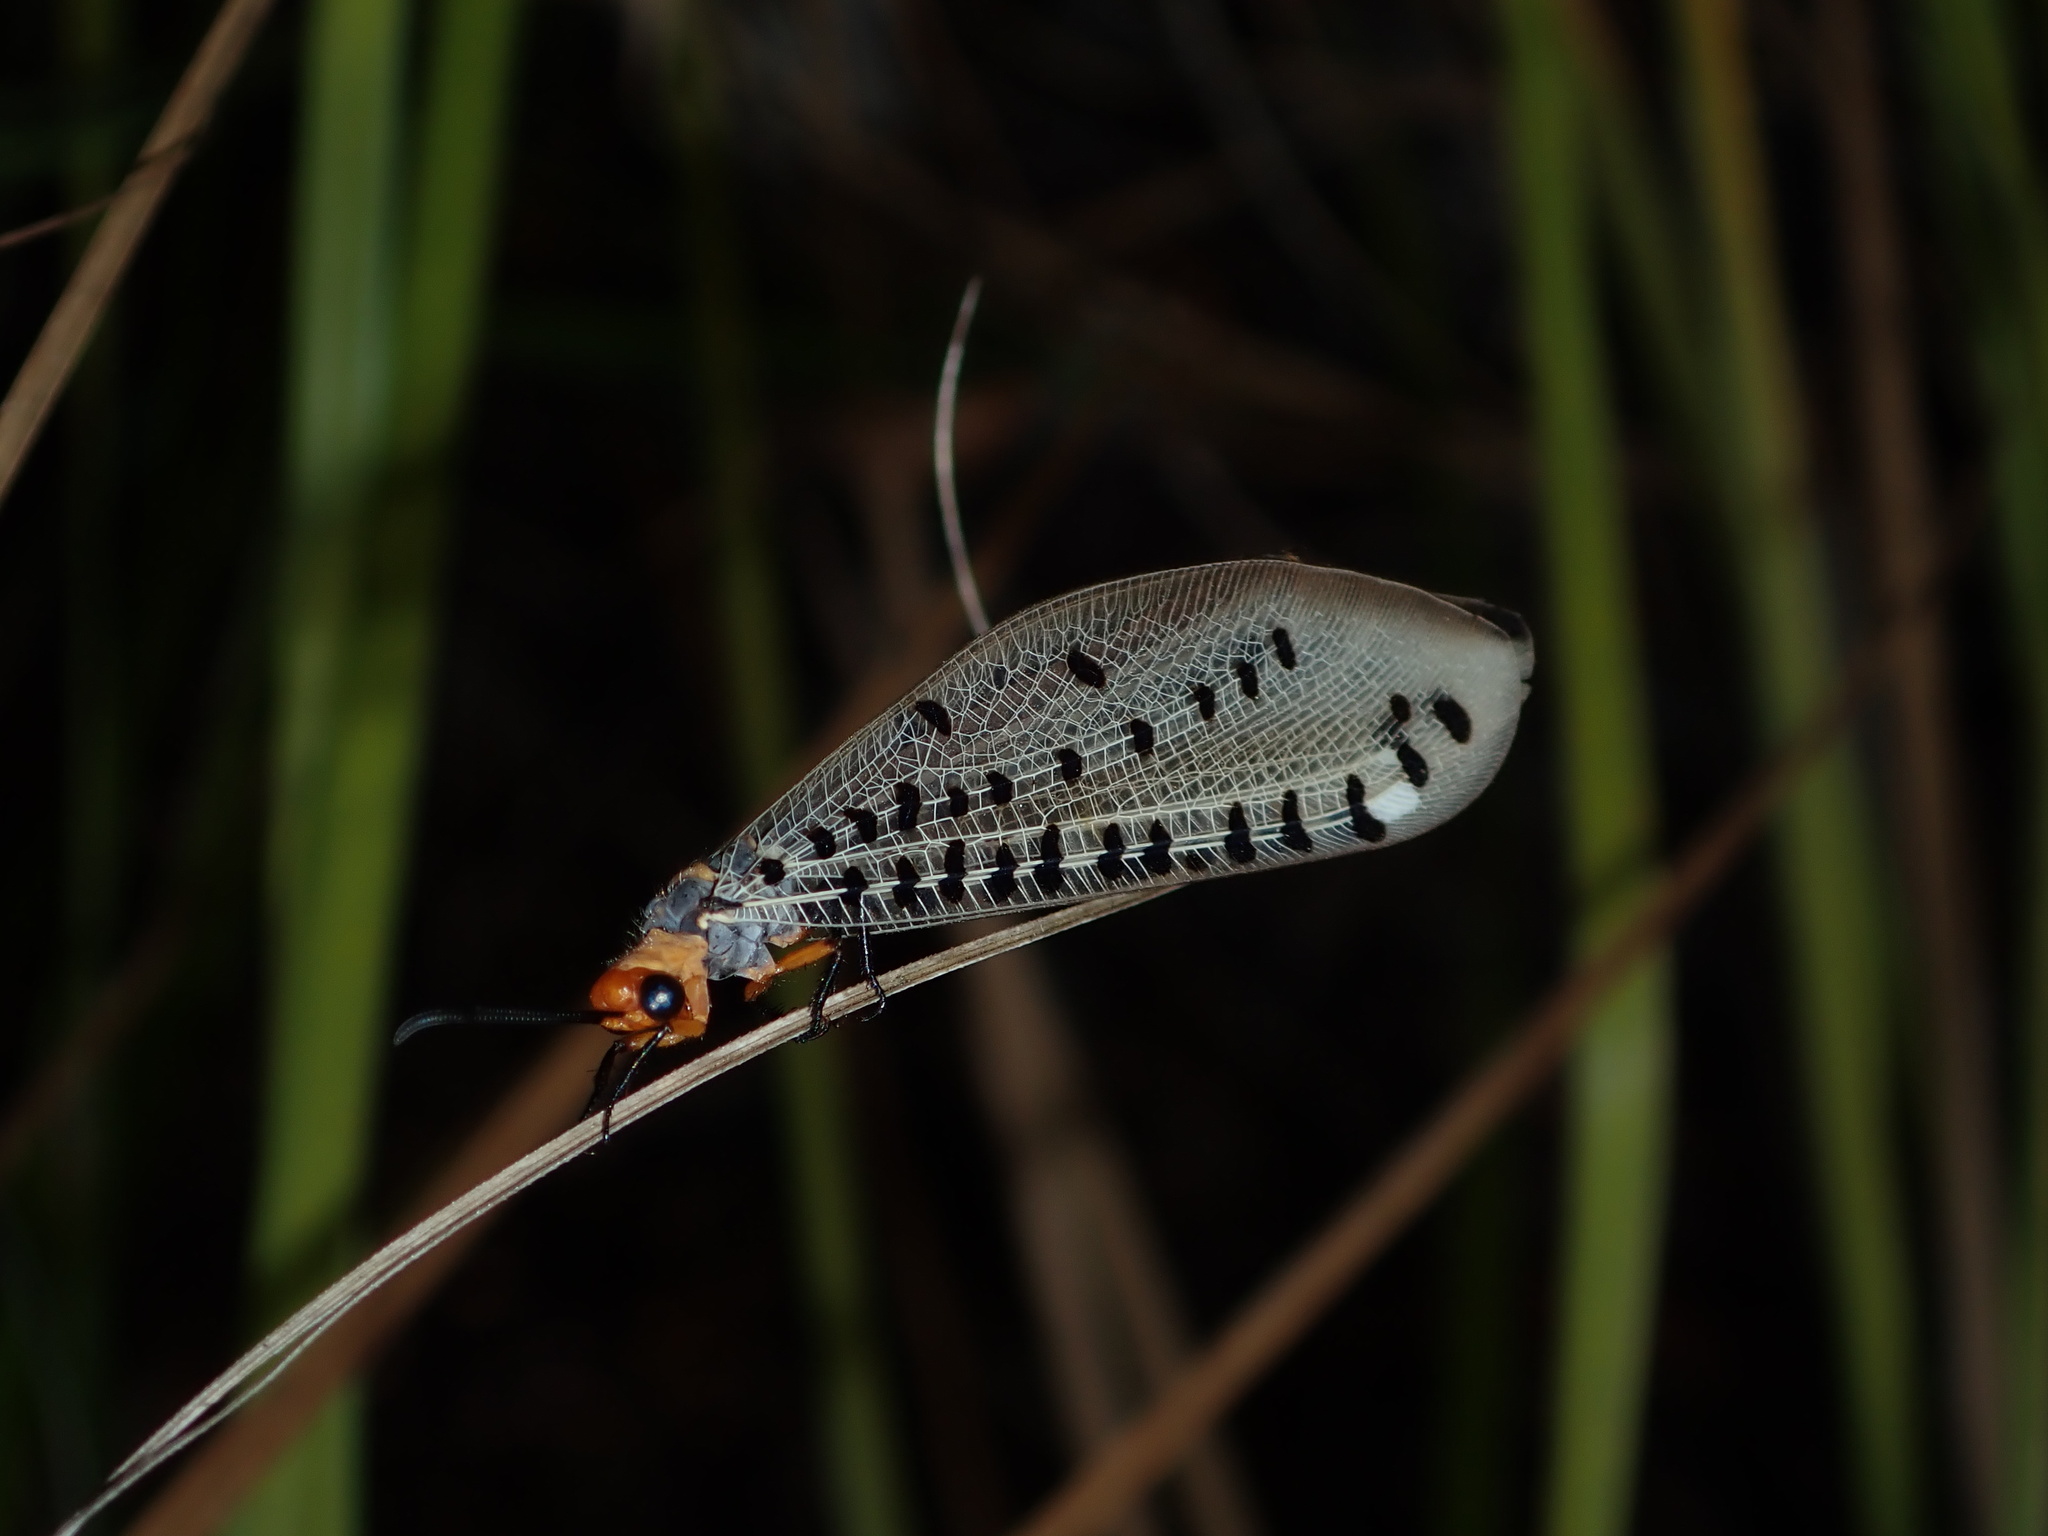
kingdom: Animalia
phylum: Arthropoda
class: Insecta
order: Neuroptera
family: Myrmeleontidae
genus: Myrmeleon
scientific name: Myrmeleon erythrocephalus
